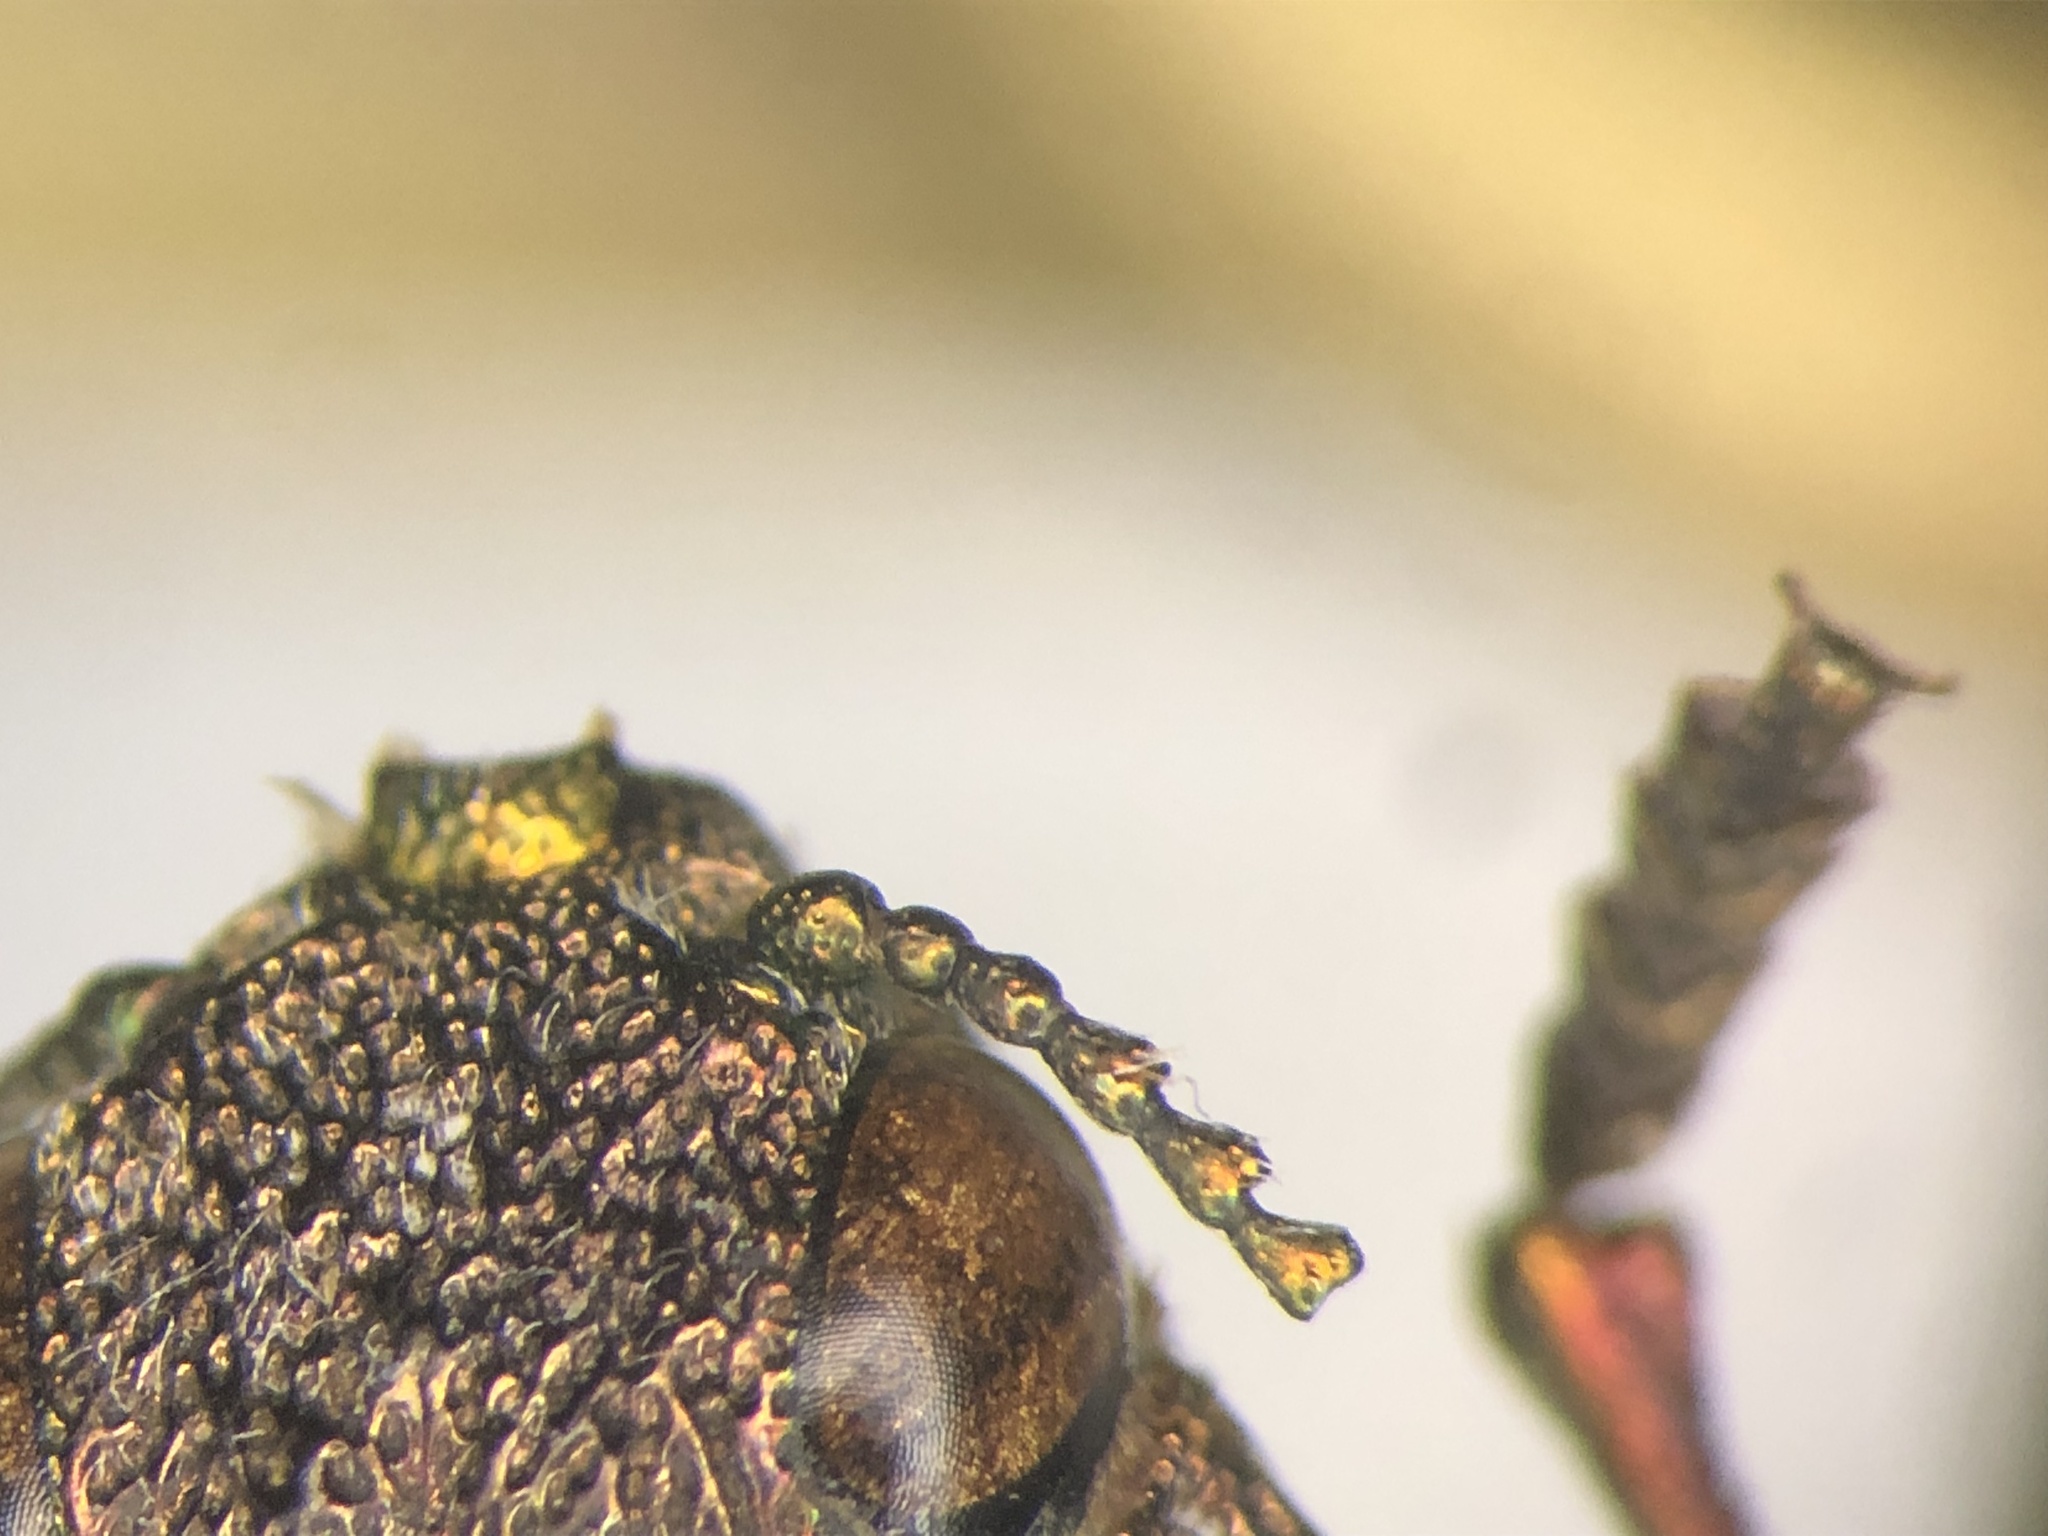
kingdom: Animalia
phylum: Arthropoda
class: Insecta
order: Coleoptera
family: Buprestidae
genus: Dicerca
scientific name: Dicerca caudata
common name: Tailed jewel borer
